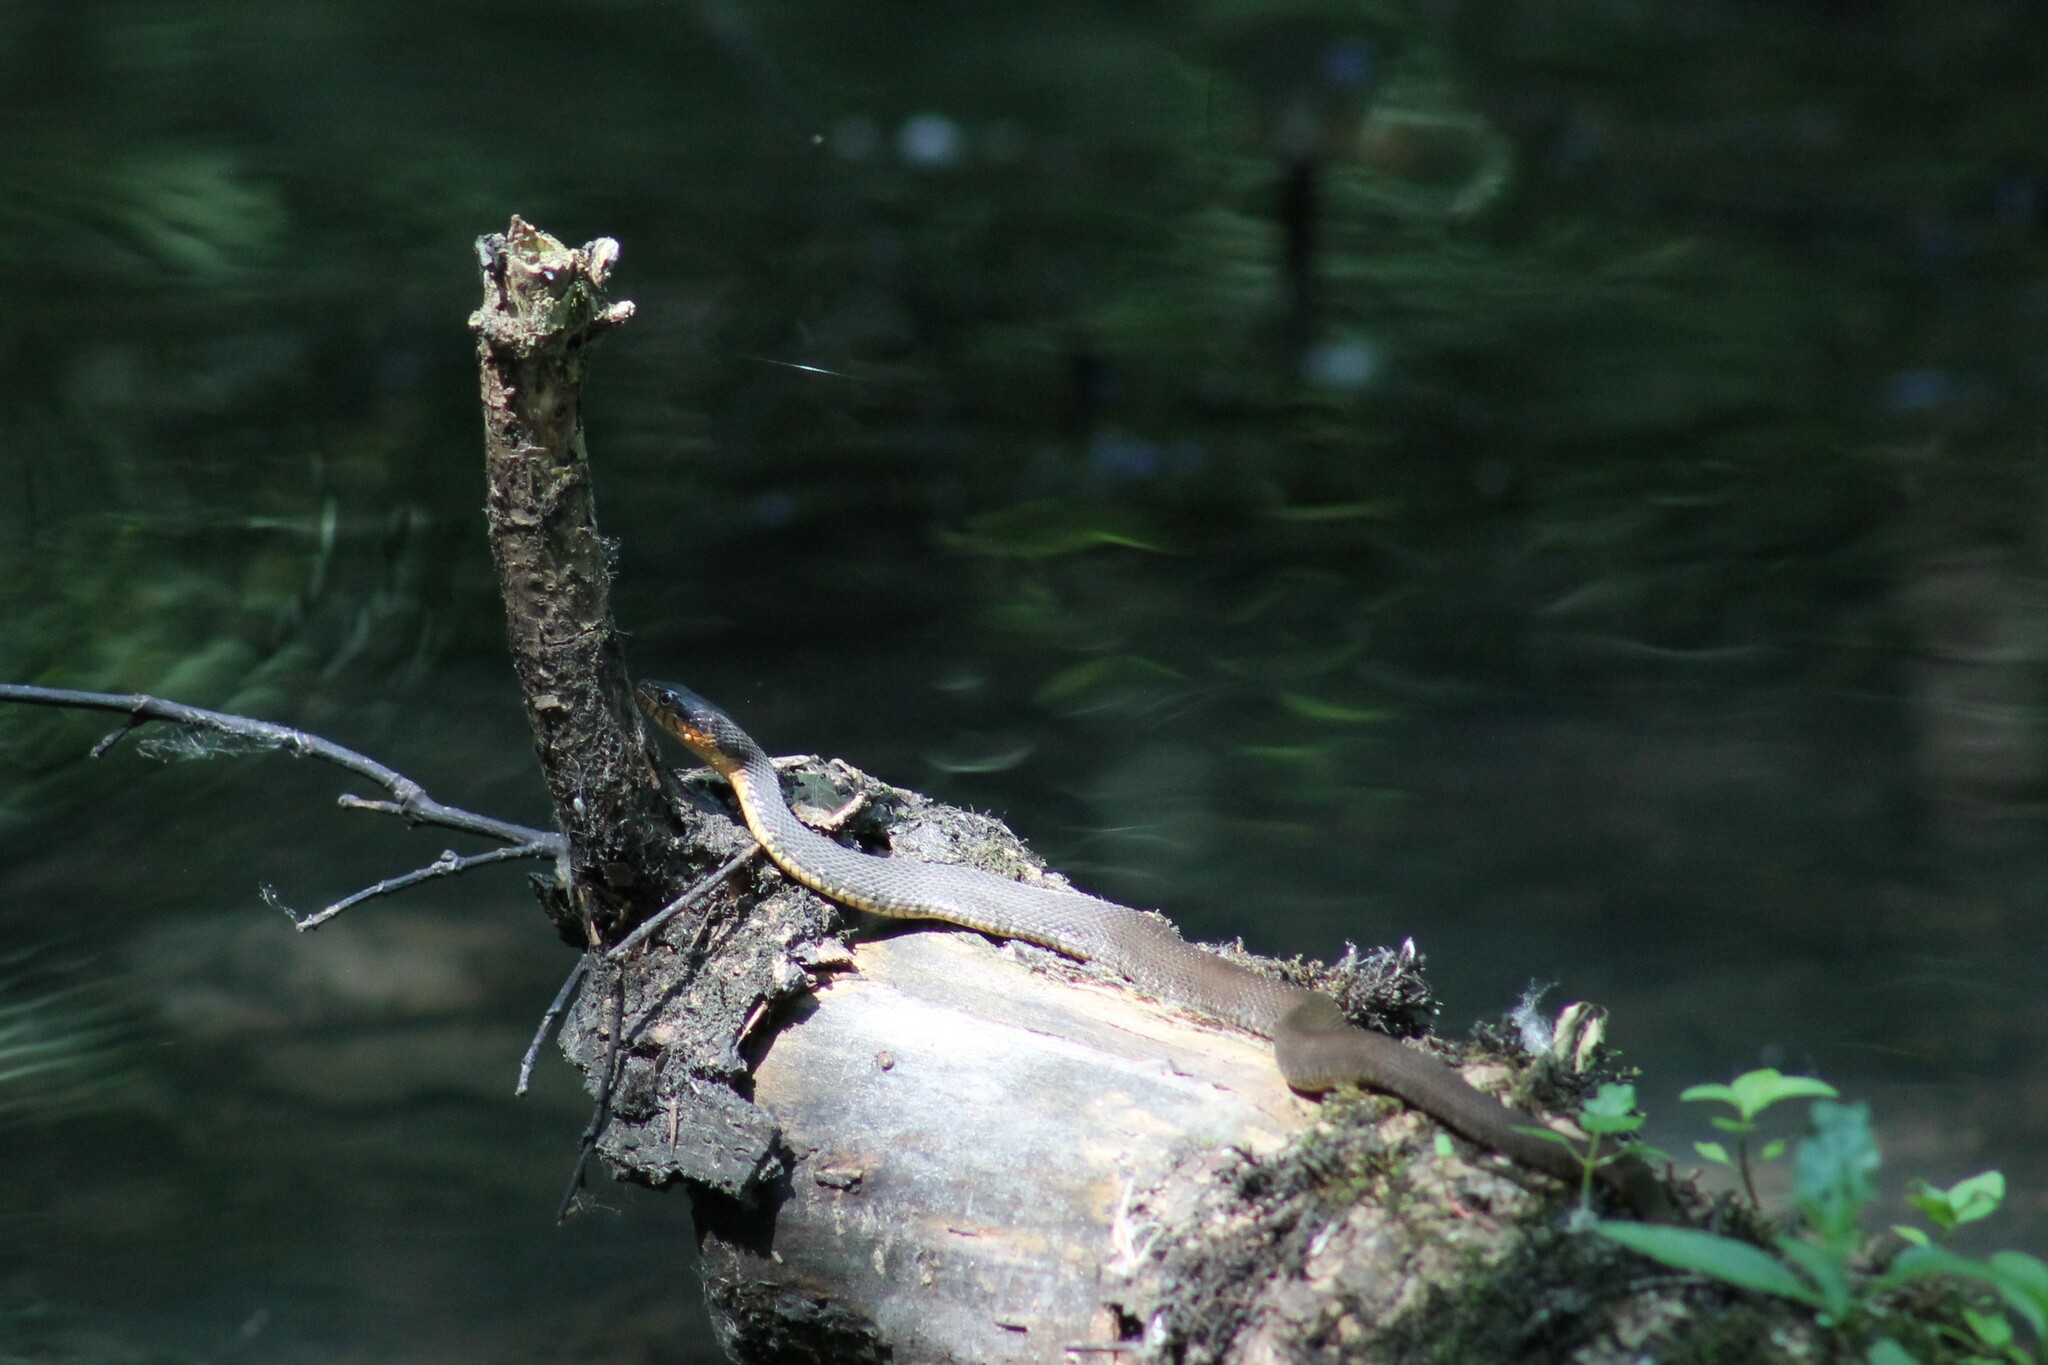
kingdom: Animalia
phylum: Chordata
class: Squamata
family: Colubridae
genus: Nerodia
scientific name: Nerodia erythrogaster
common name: Plainbelly water snake
